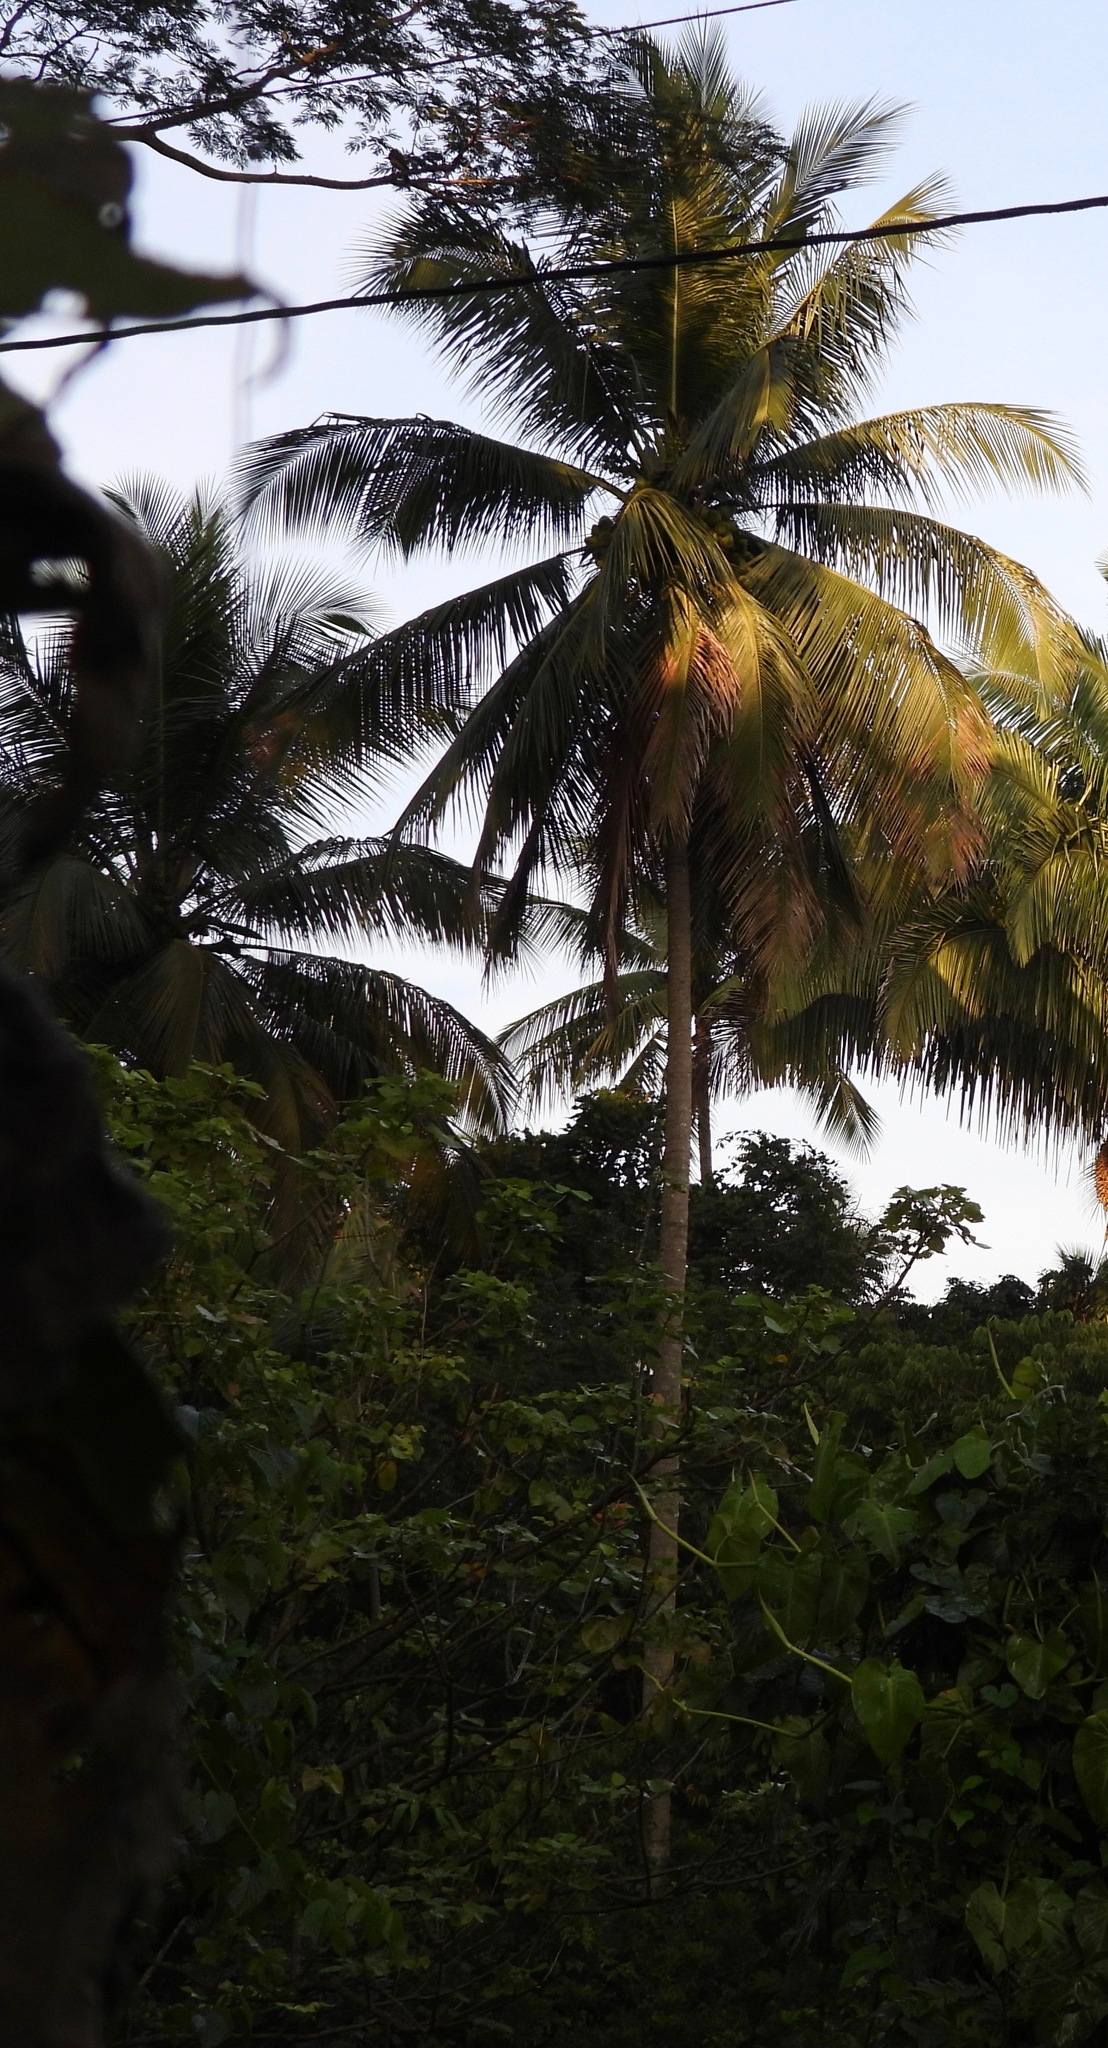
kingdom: Plantae
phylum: Tracheophyta
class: Liliopsida
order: Arecales
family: Arecaceae
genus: Cocos
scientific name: Cocos nucifera
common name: Coconut palm
